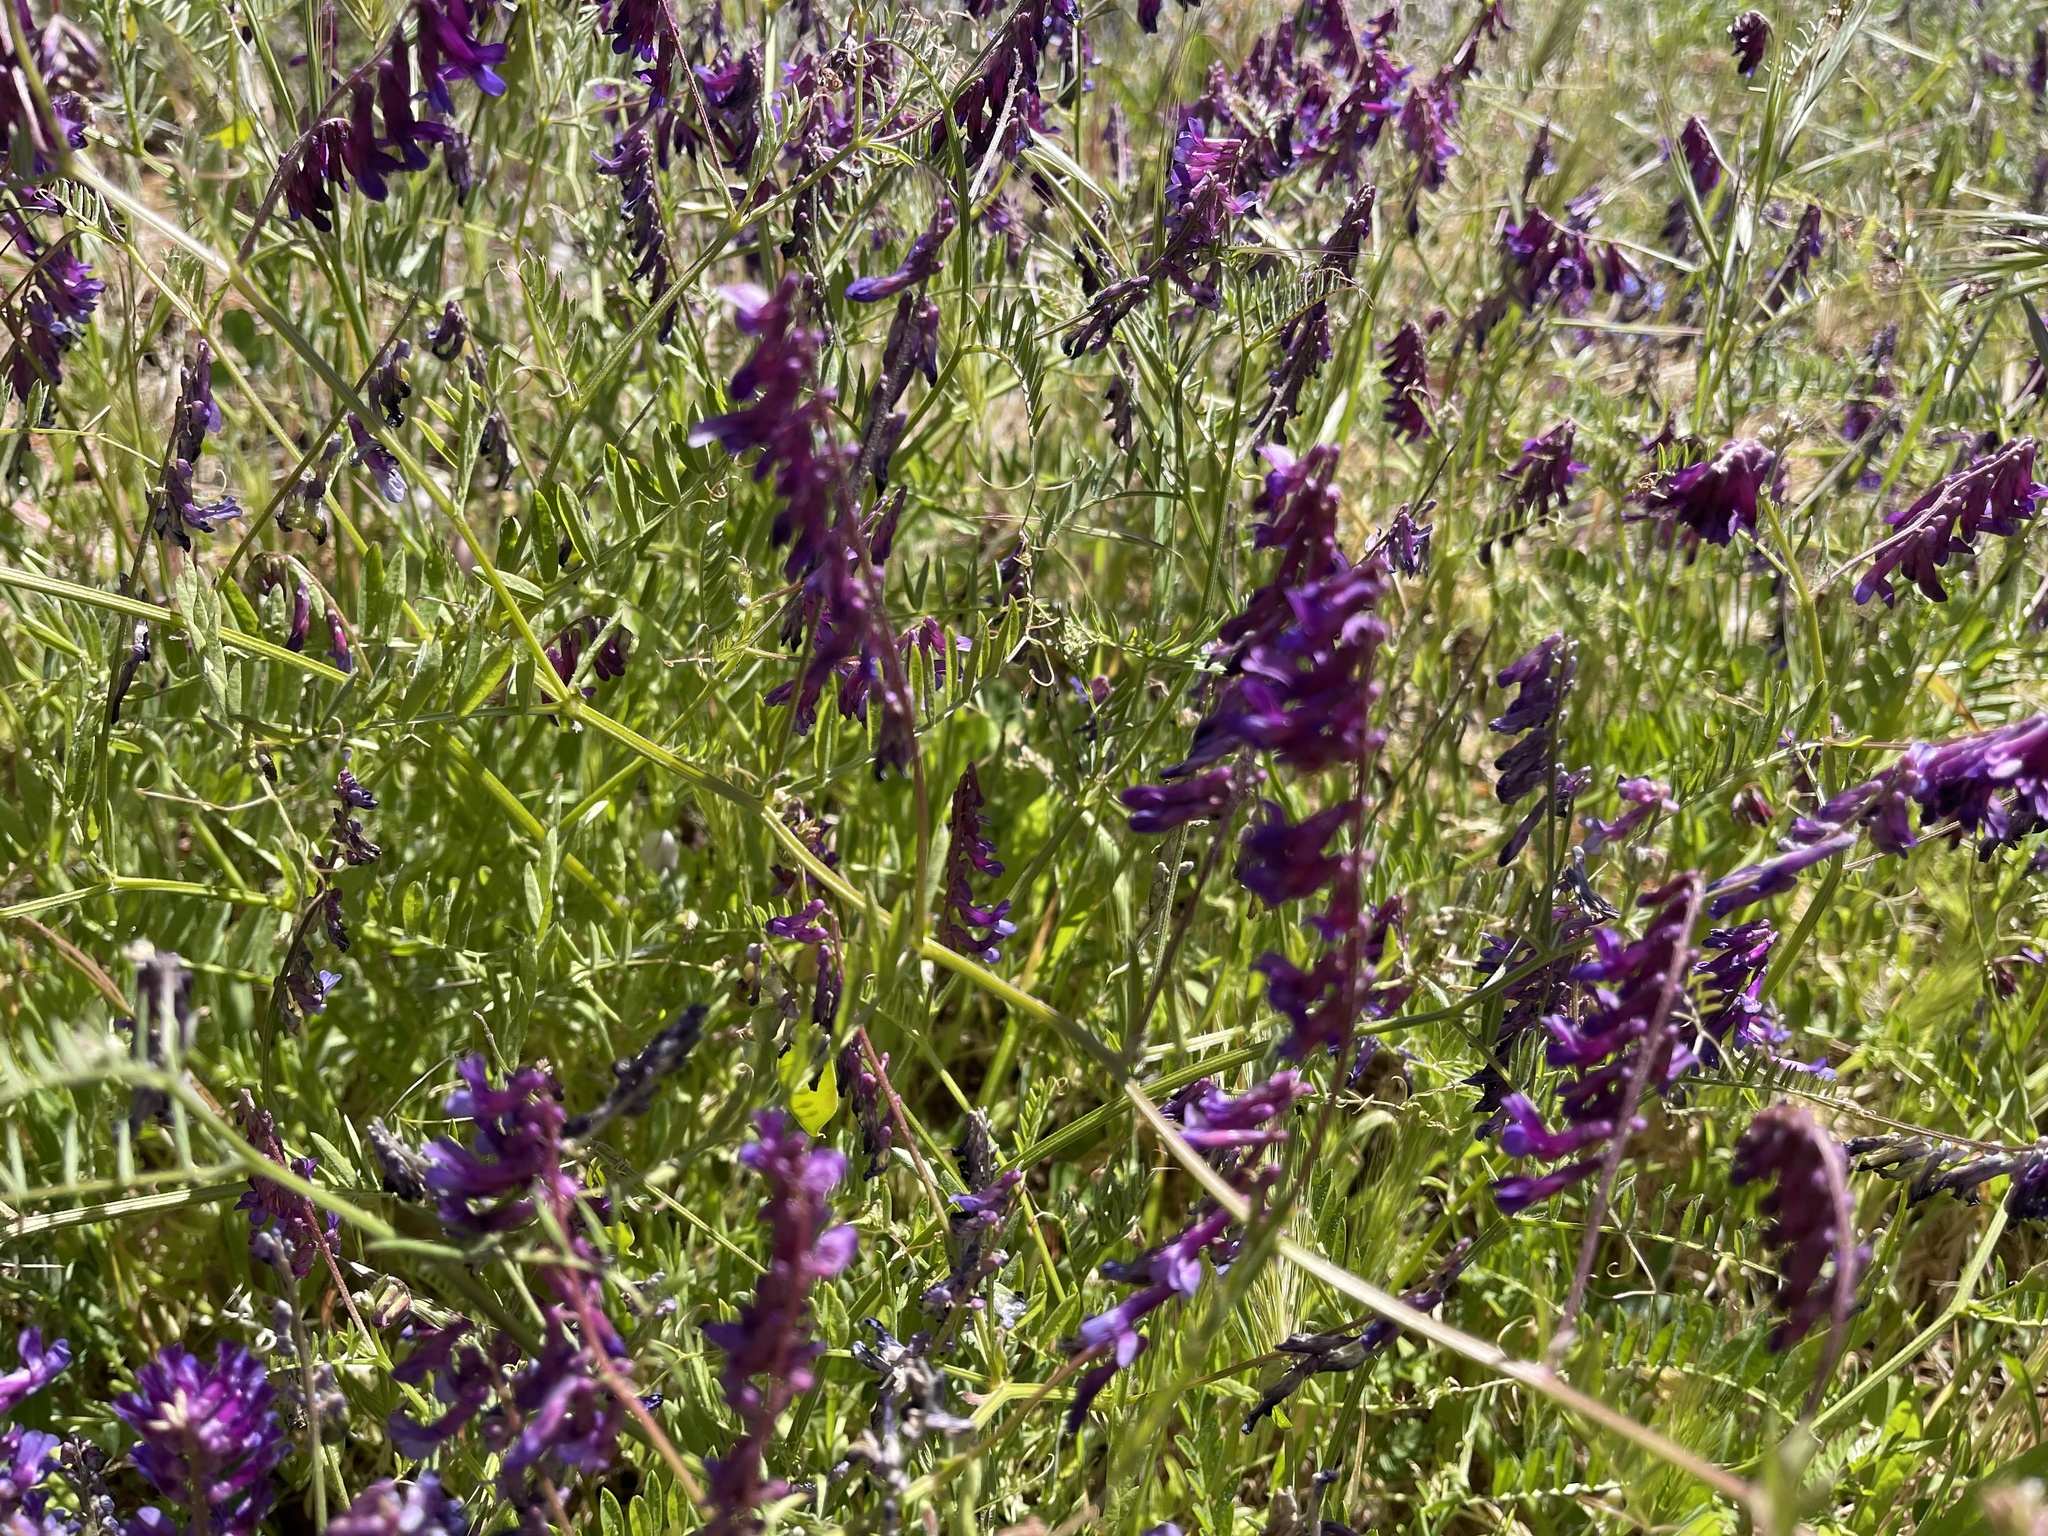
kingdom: Plantae
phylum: Tracheophyta
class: Magnoliopsida
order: Fabales
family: Fabaceae
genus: Vicia
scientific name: Vicia villosa
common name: Fodder vetch
